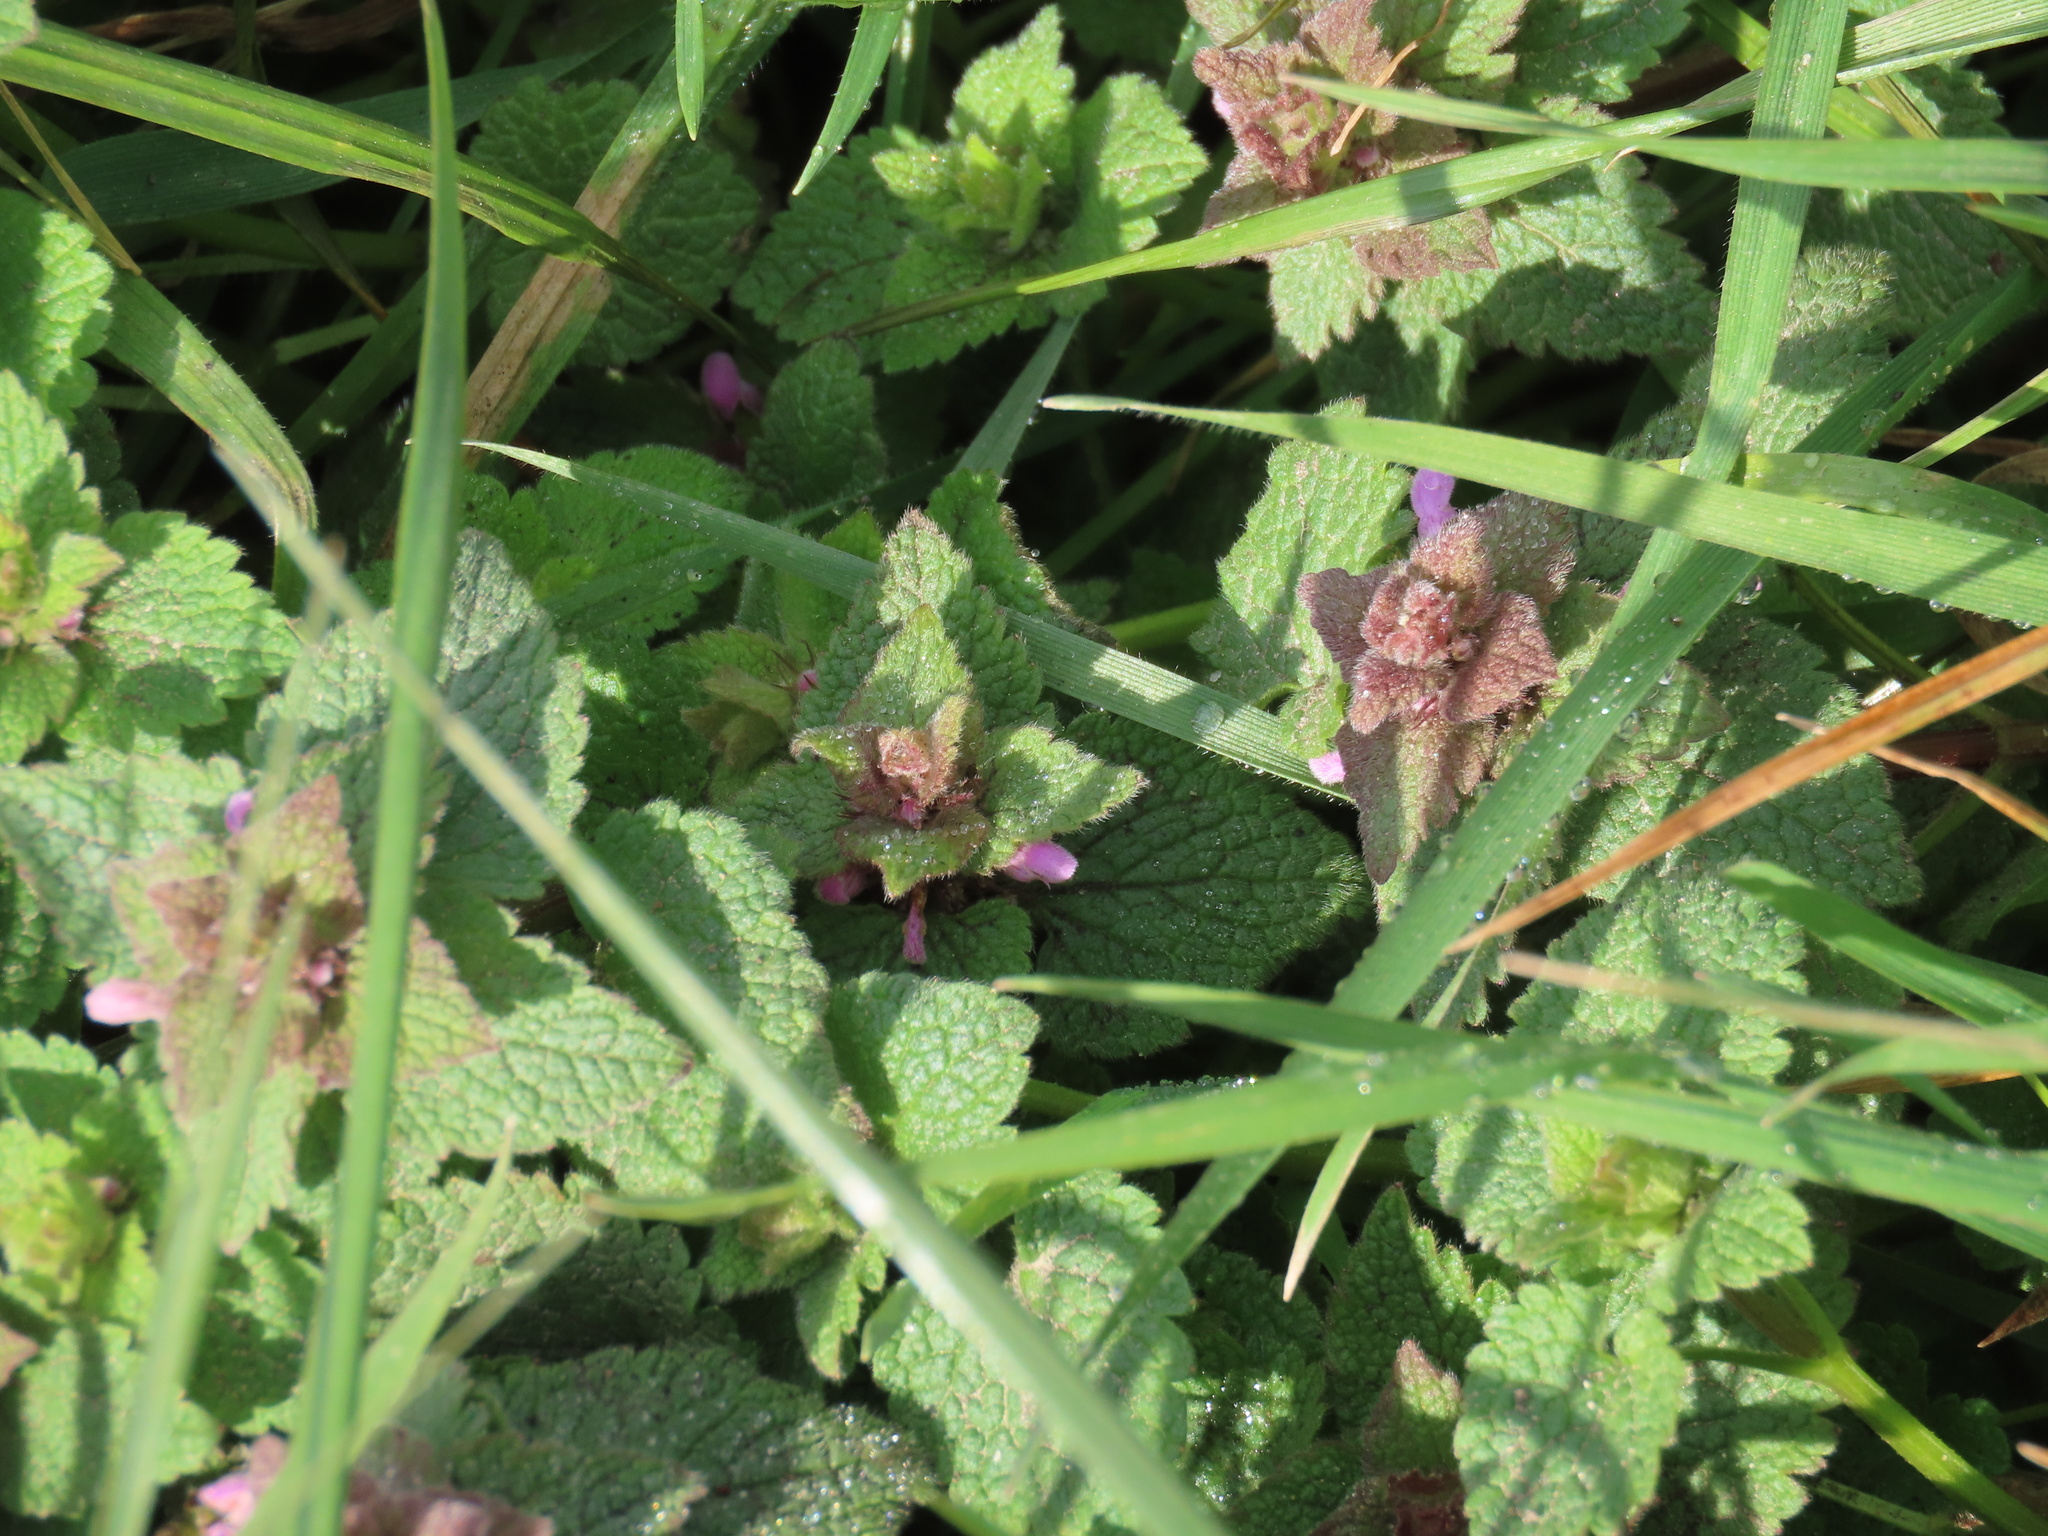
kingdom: Plantae
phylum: Tracheophyta
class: Magnoliopsida
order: Lamiales
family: Lamiaceae
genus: Lamium
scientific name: Lamium purpureum
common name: Red dead-nettle
